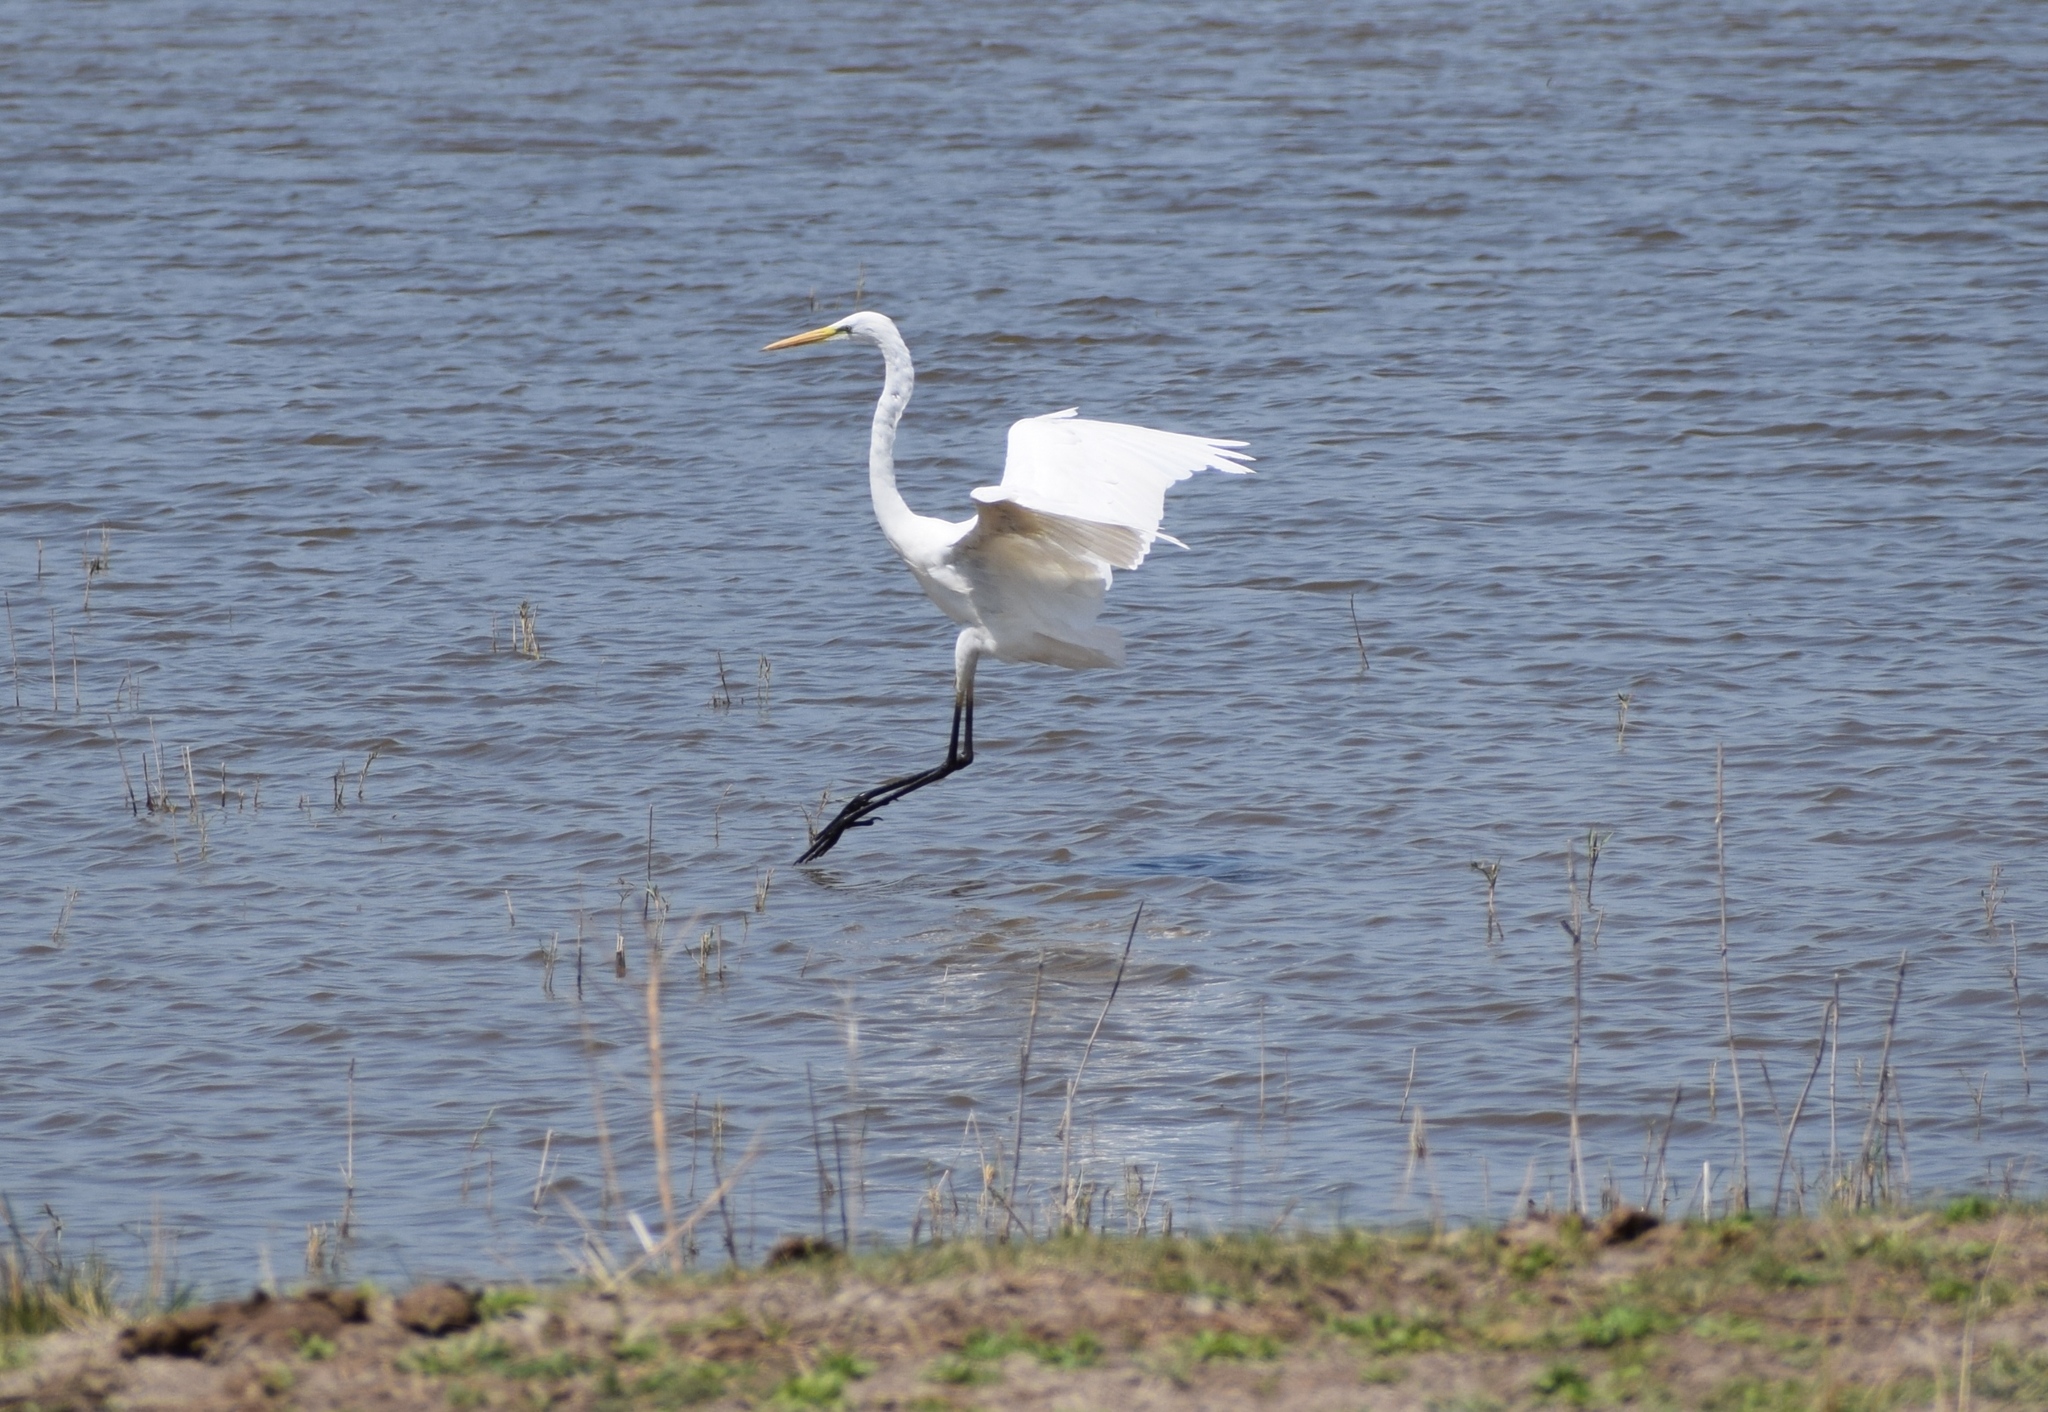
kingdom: Animalia
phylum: Chordata
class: Aves
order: Pelecaniformes
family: Ardeidae
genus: Ardea
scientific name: Ardea alba
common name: Great egret
